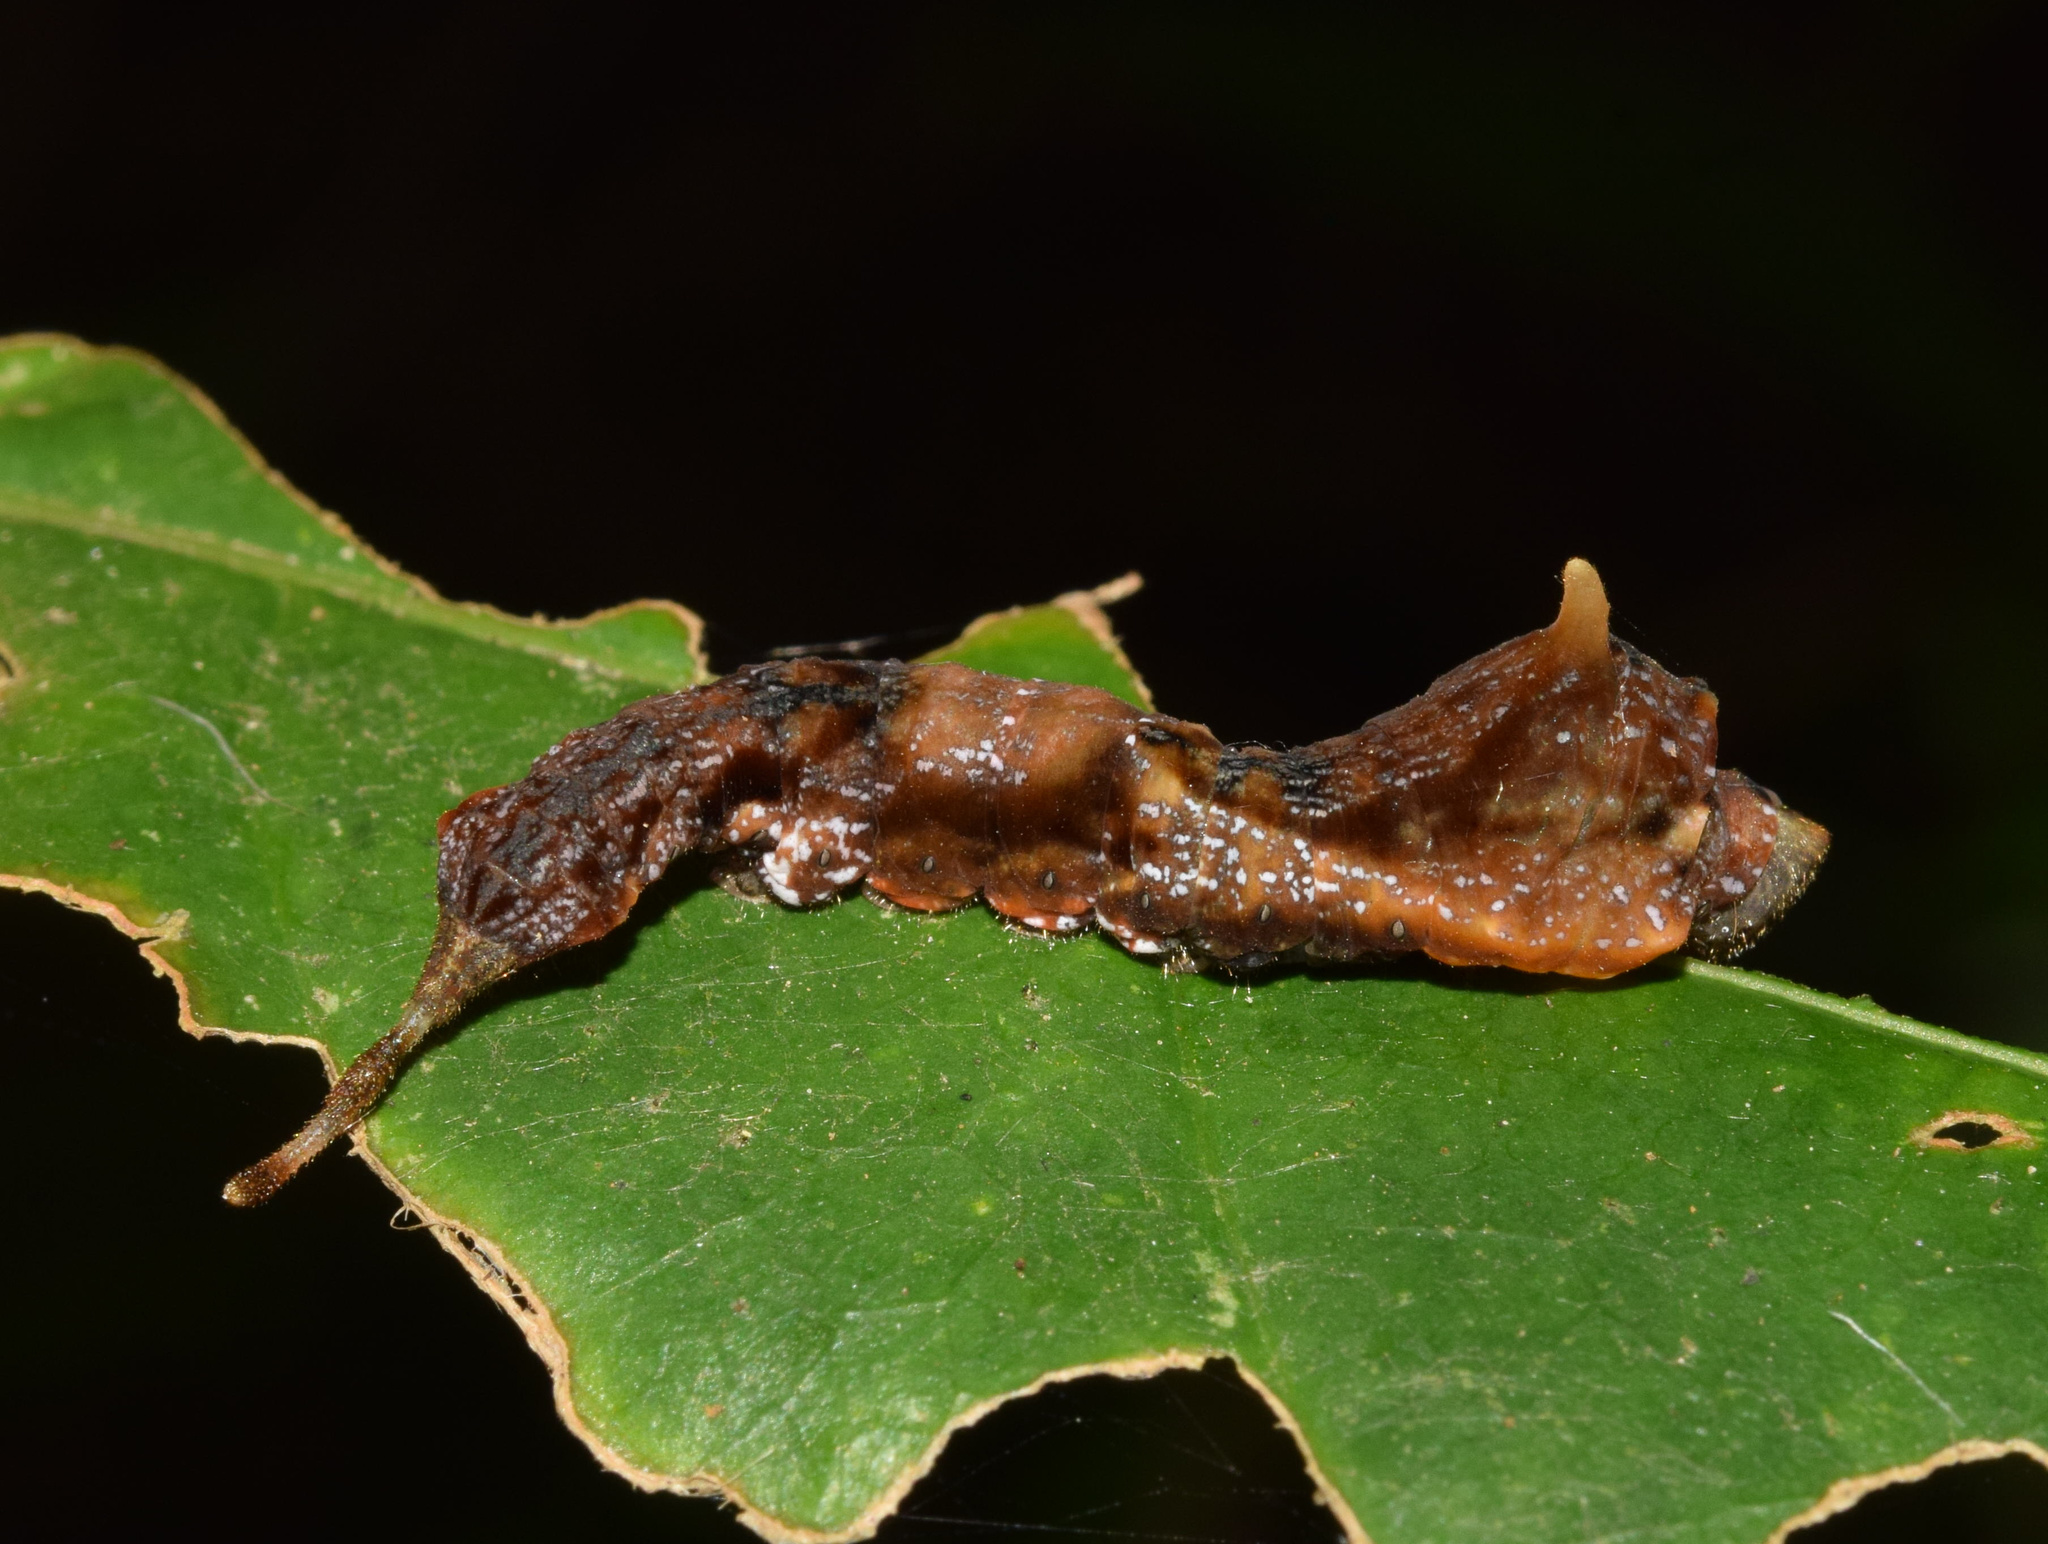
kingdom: Animalia
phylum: Arthropoda
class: Insecta
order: Lepidoptera
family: Drepanidae
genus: Negera
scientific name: Negera natalensis
